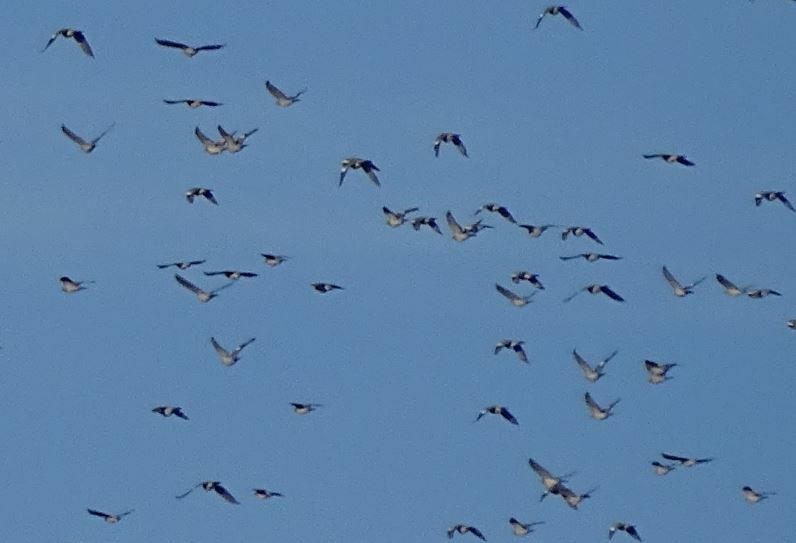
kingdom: Animalia
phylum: Chordata
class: Aves
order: Columbiformes
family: Columbidae
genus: Columba
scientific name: Columba palumbus
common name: Common wood pigeon
